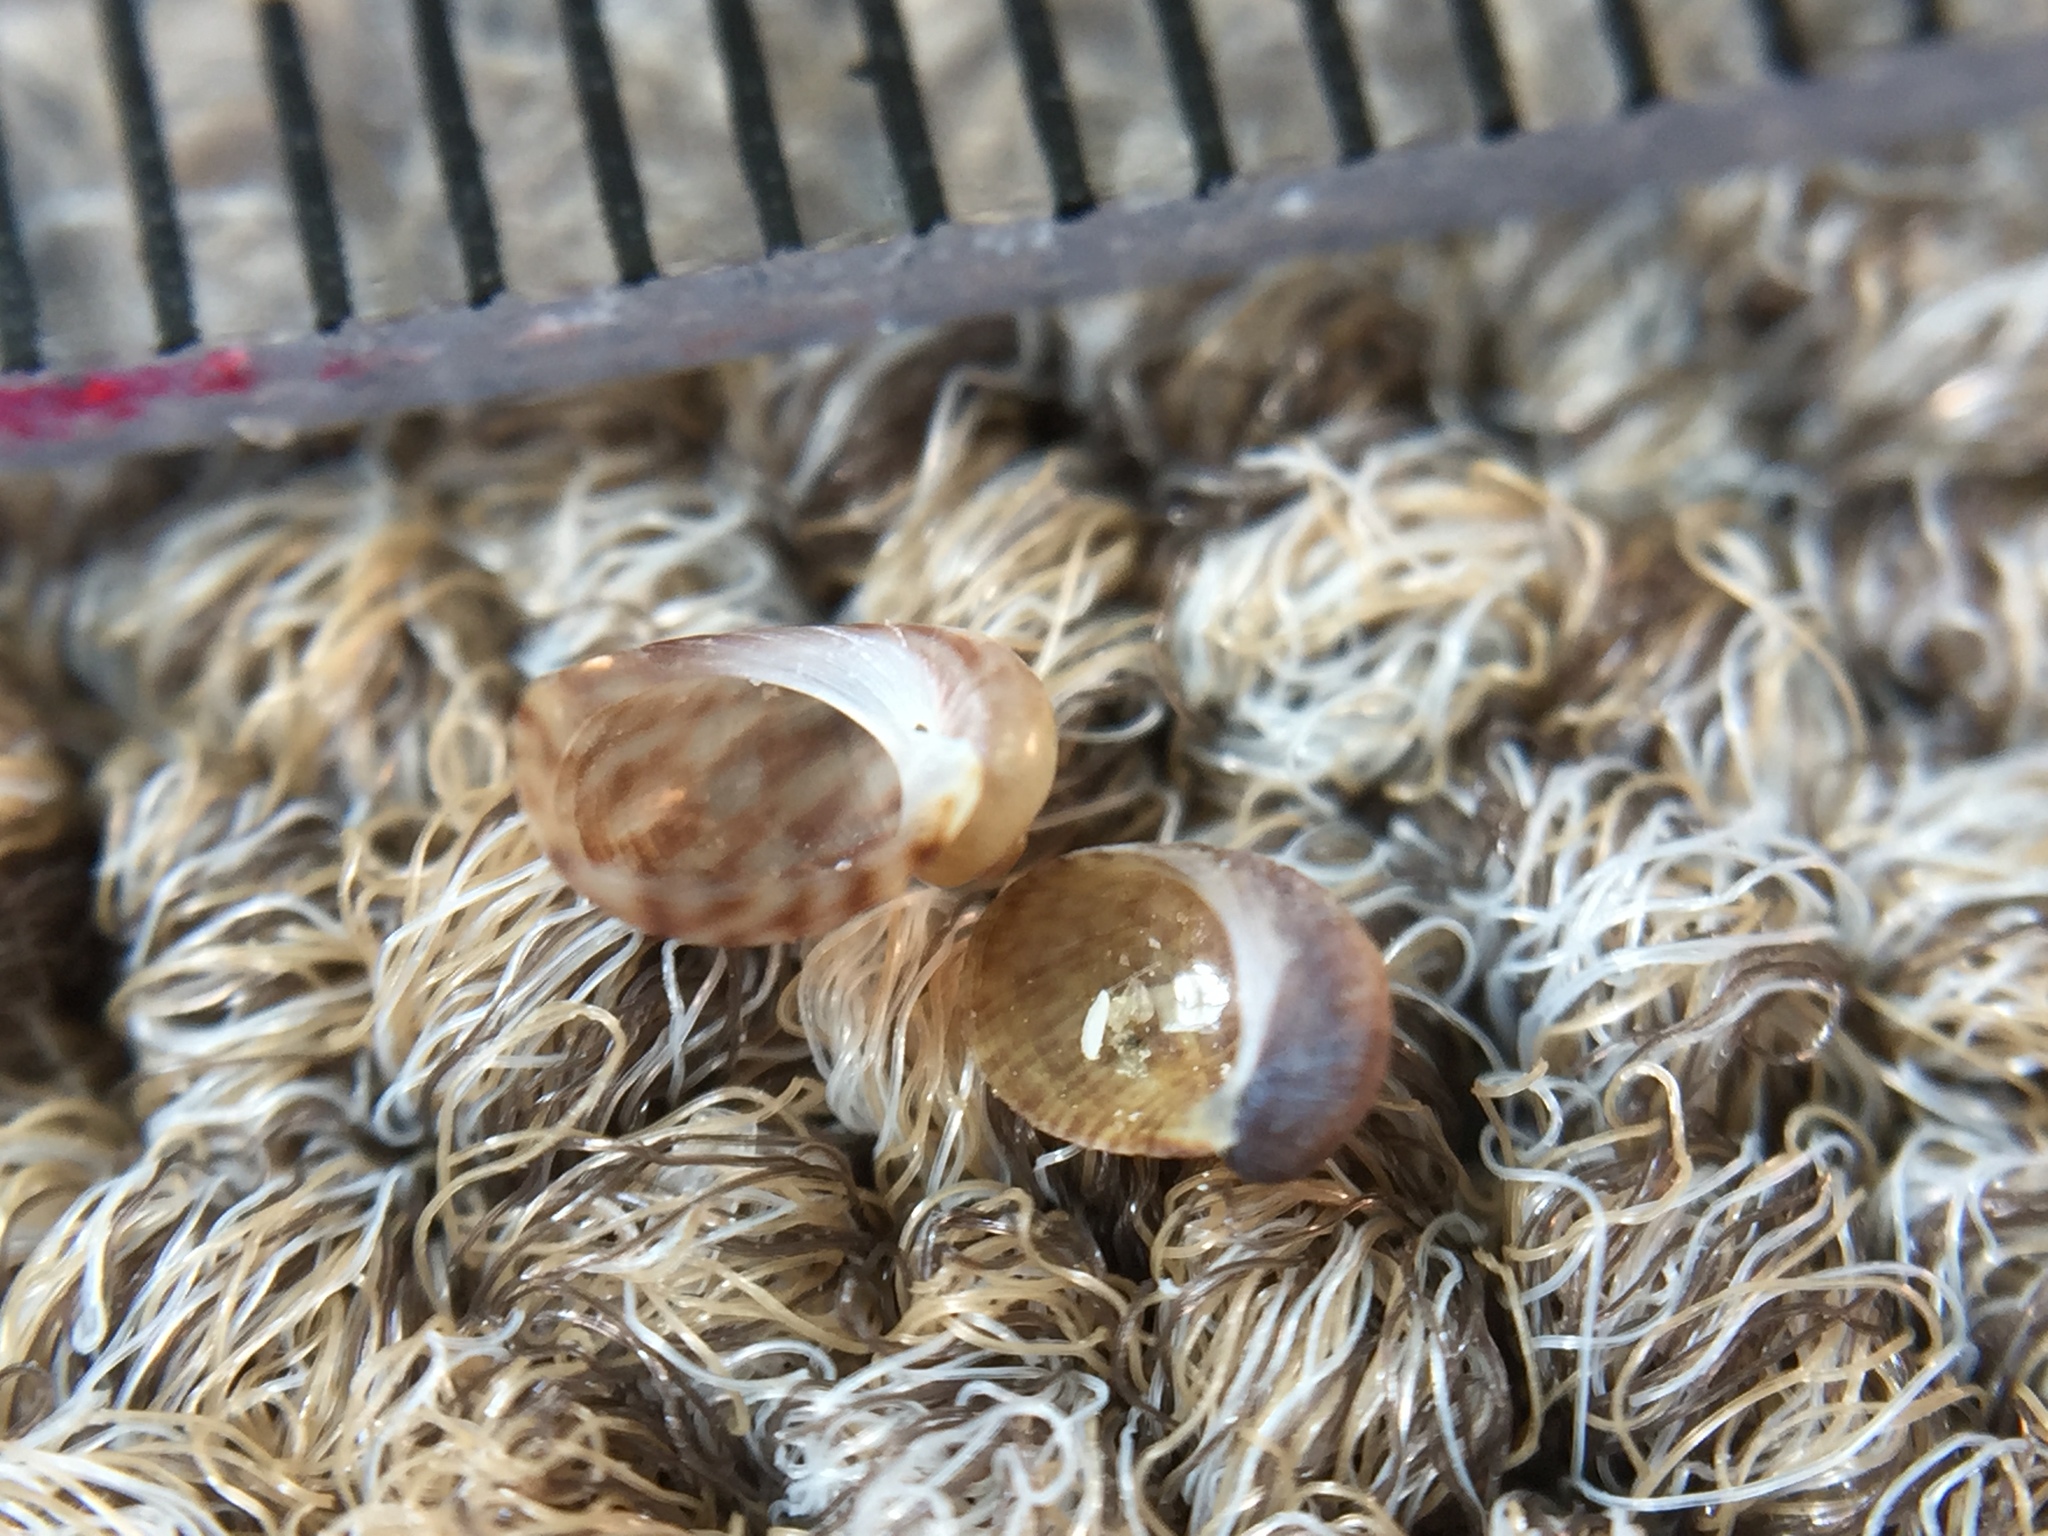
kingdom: Animalia
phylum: Mollusca
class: Gastropoda
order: Trochida
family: Trochidae
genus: Fossarina
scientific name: Fossarina rimata
